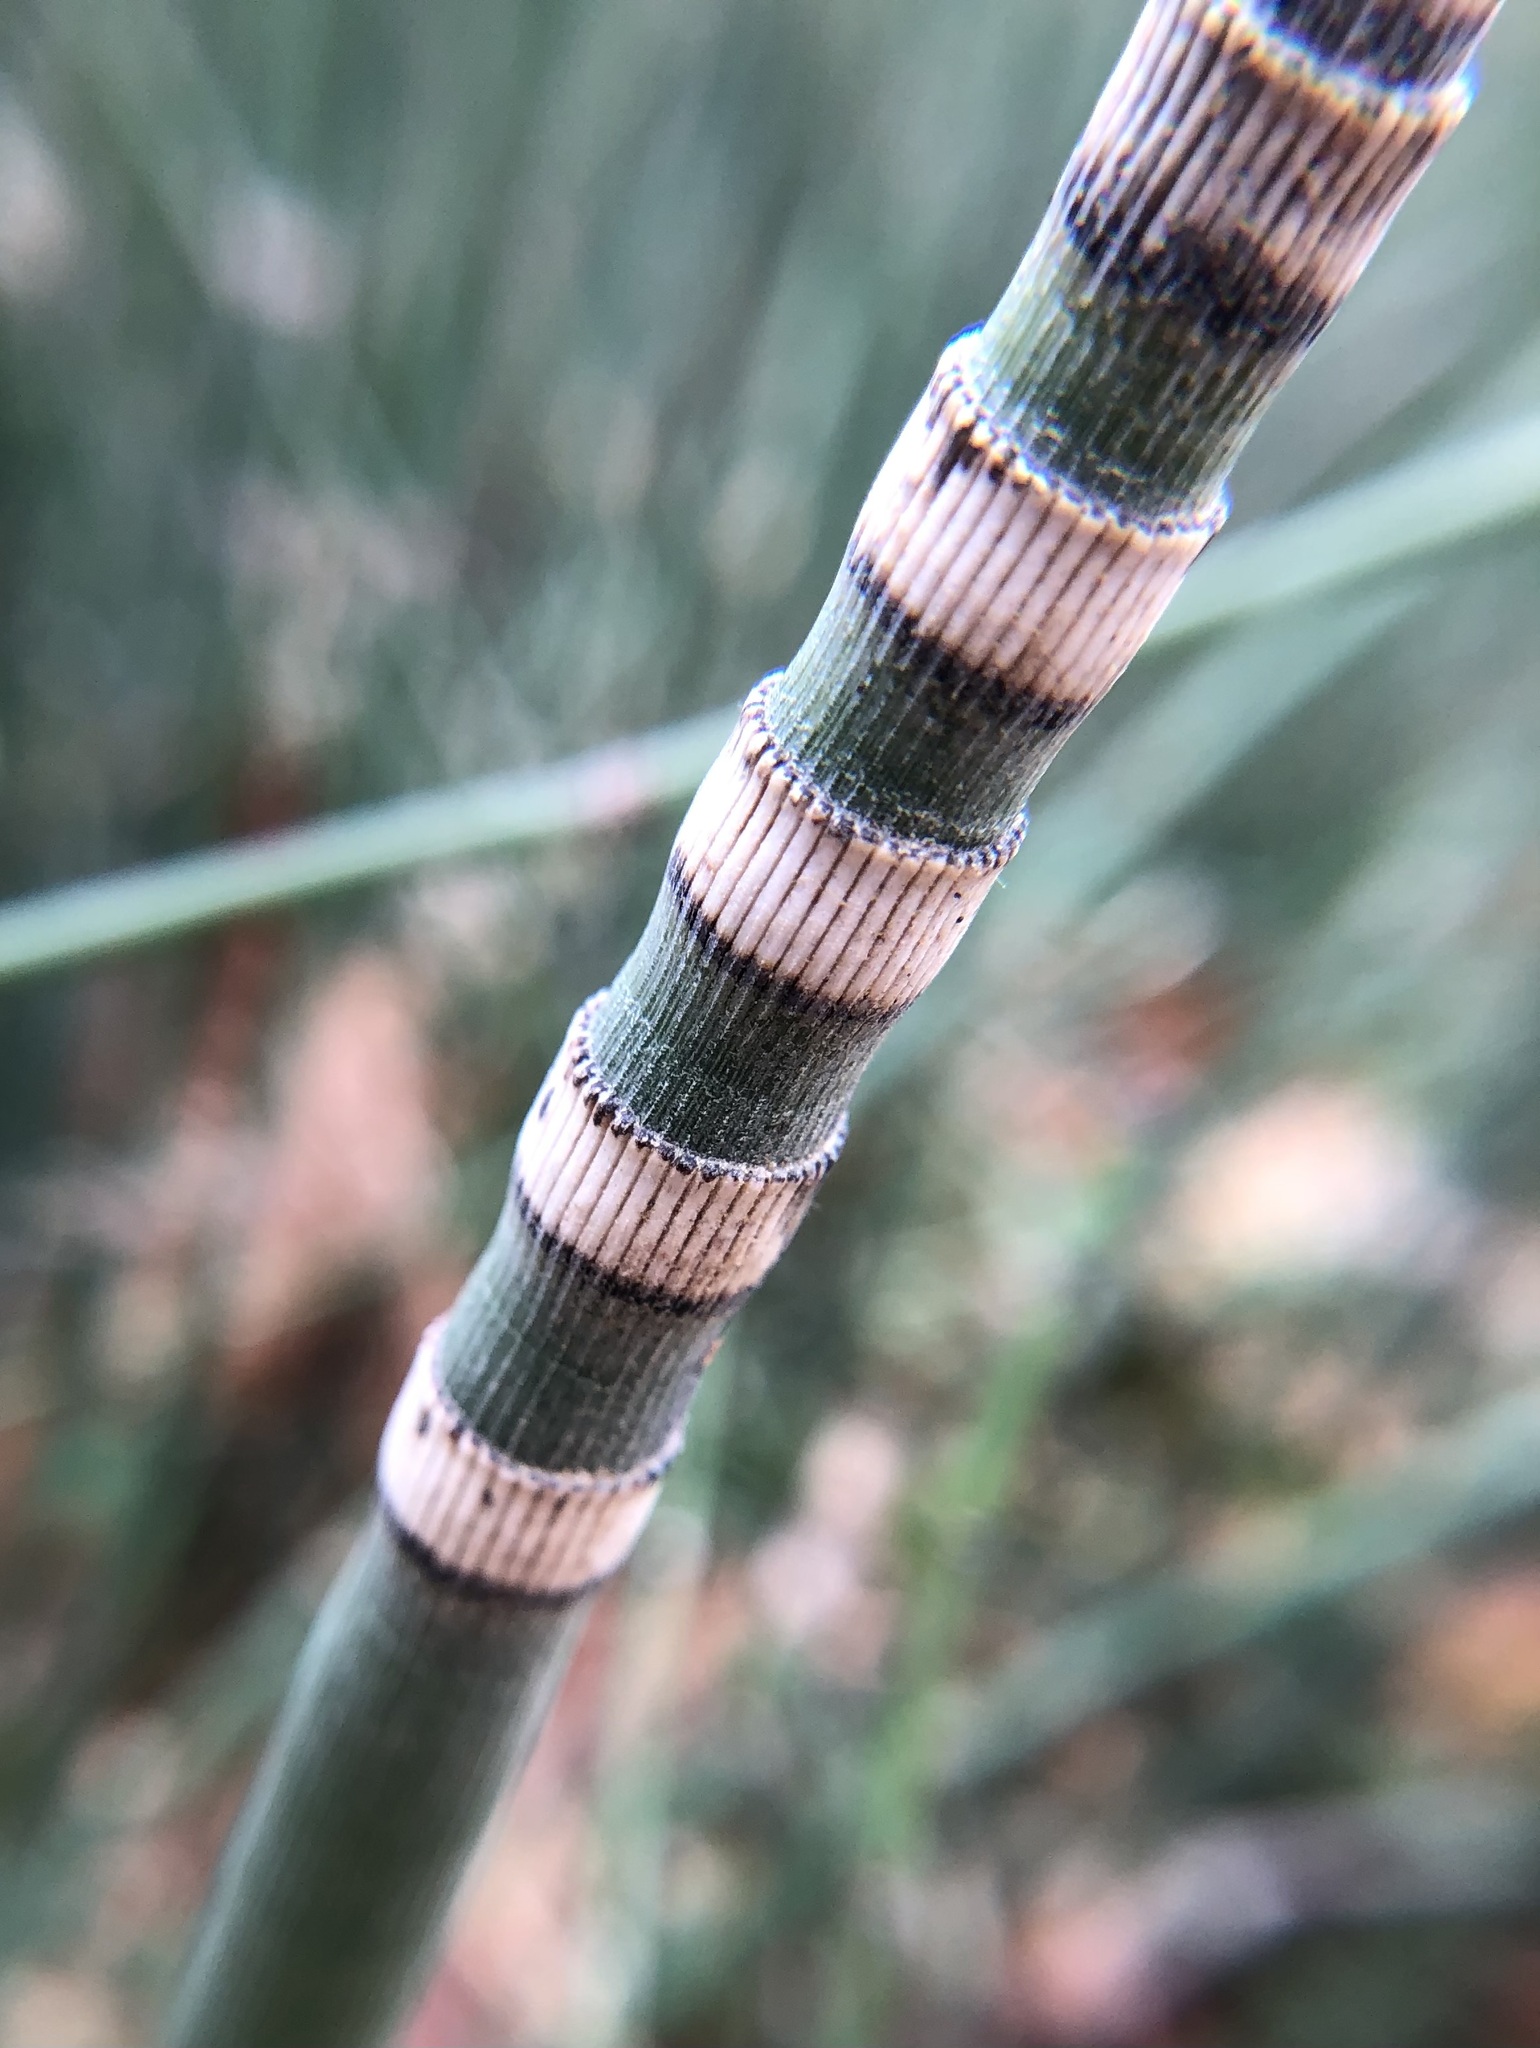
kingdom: Plantae
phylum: Tracheophyta
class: Polypodiopsida
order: Equisetales
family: Equisetaceae
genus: Equisetum
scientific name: Equisetum hyemale
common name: Rough horsetail
